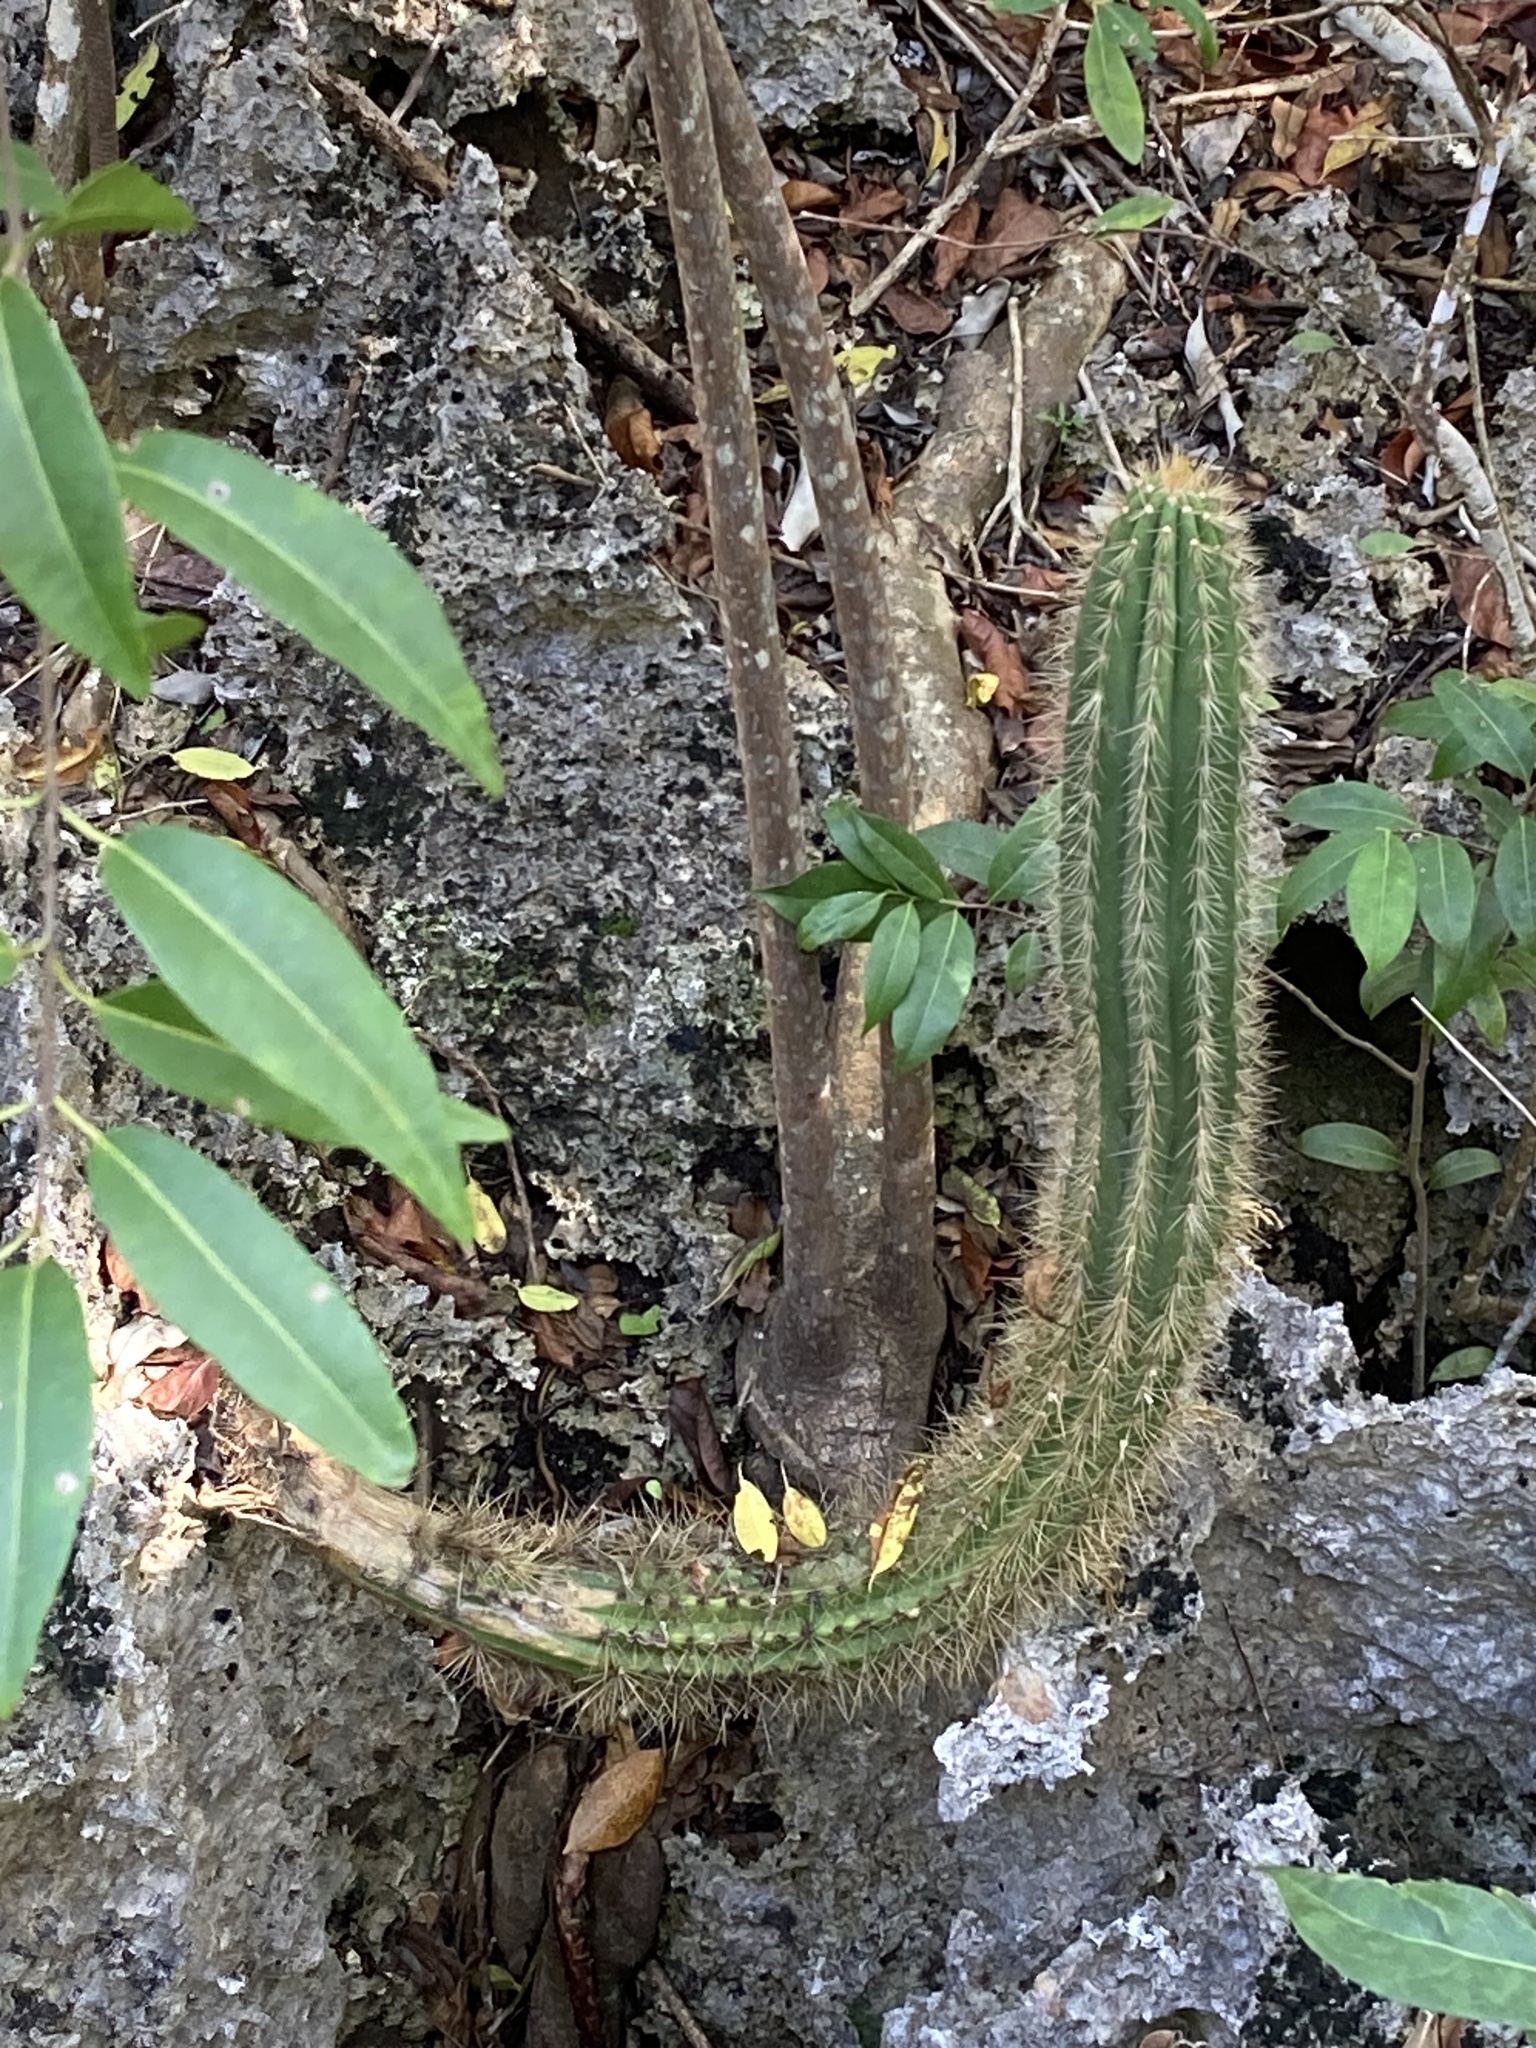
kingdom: Plantae
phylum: Tracheophyta
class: Magnoliopsida
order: Caryophyllales
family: Cactaceae
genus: Pilosocereus
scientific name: Pilosocereus jamaicensis
